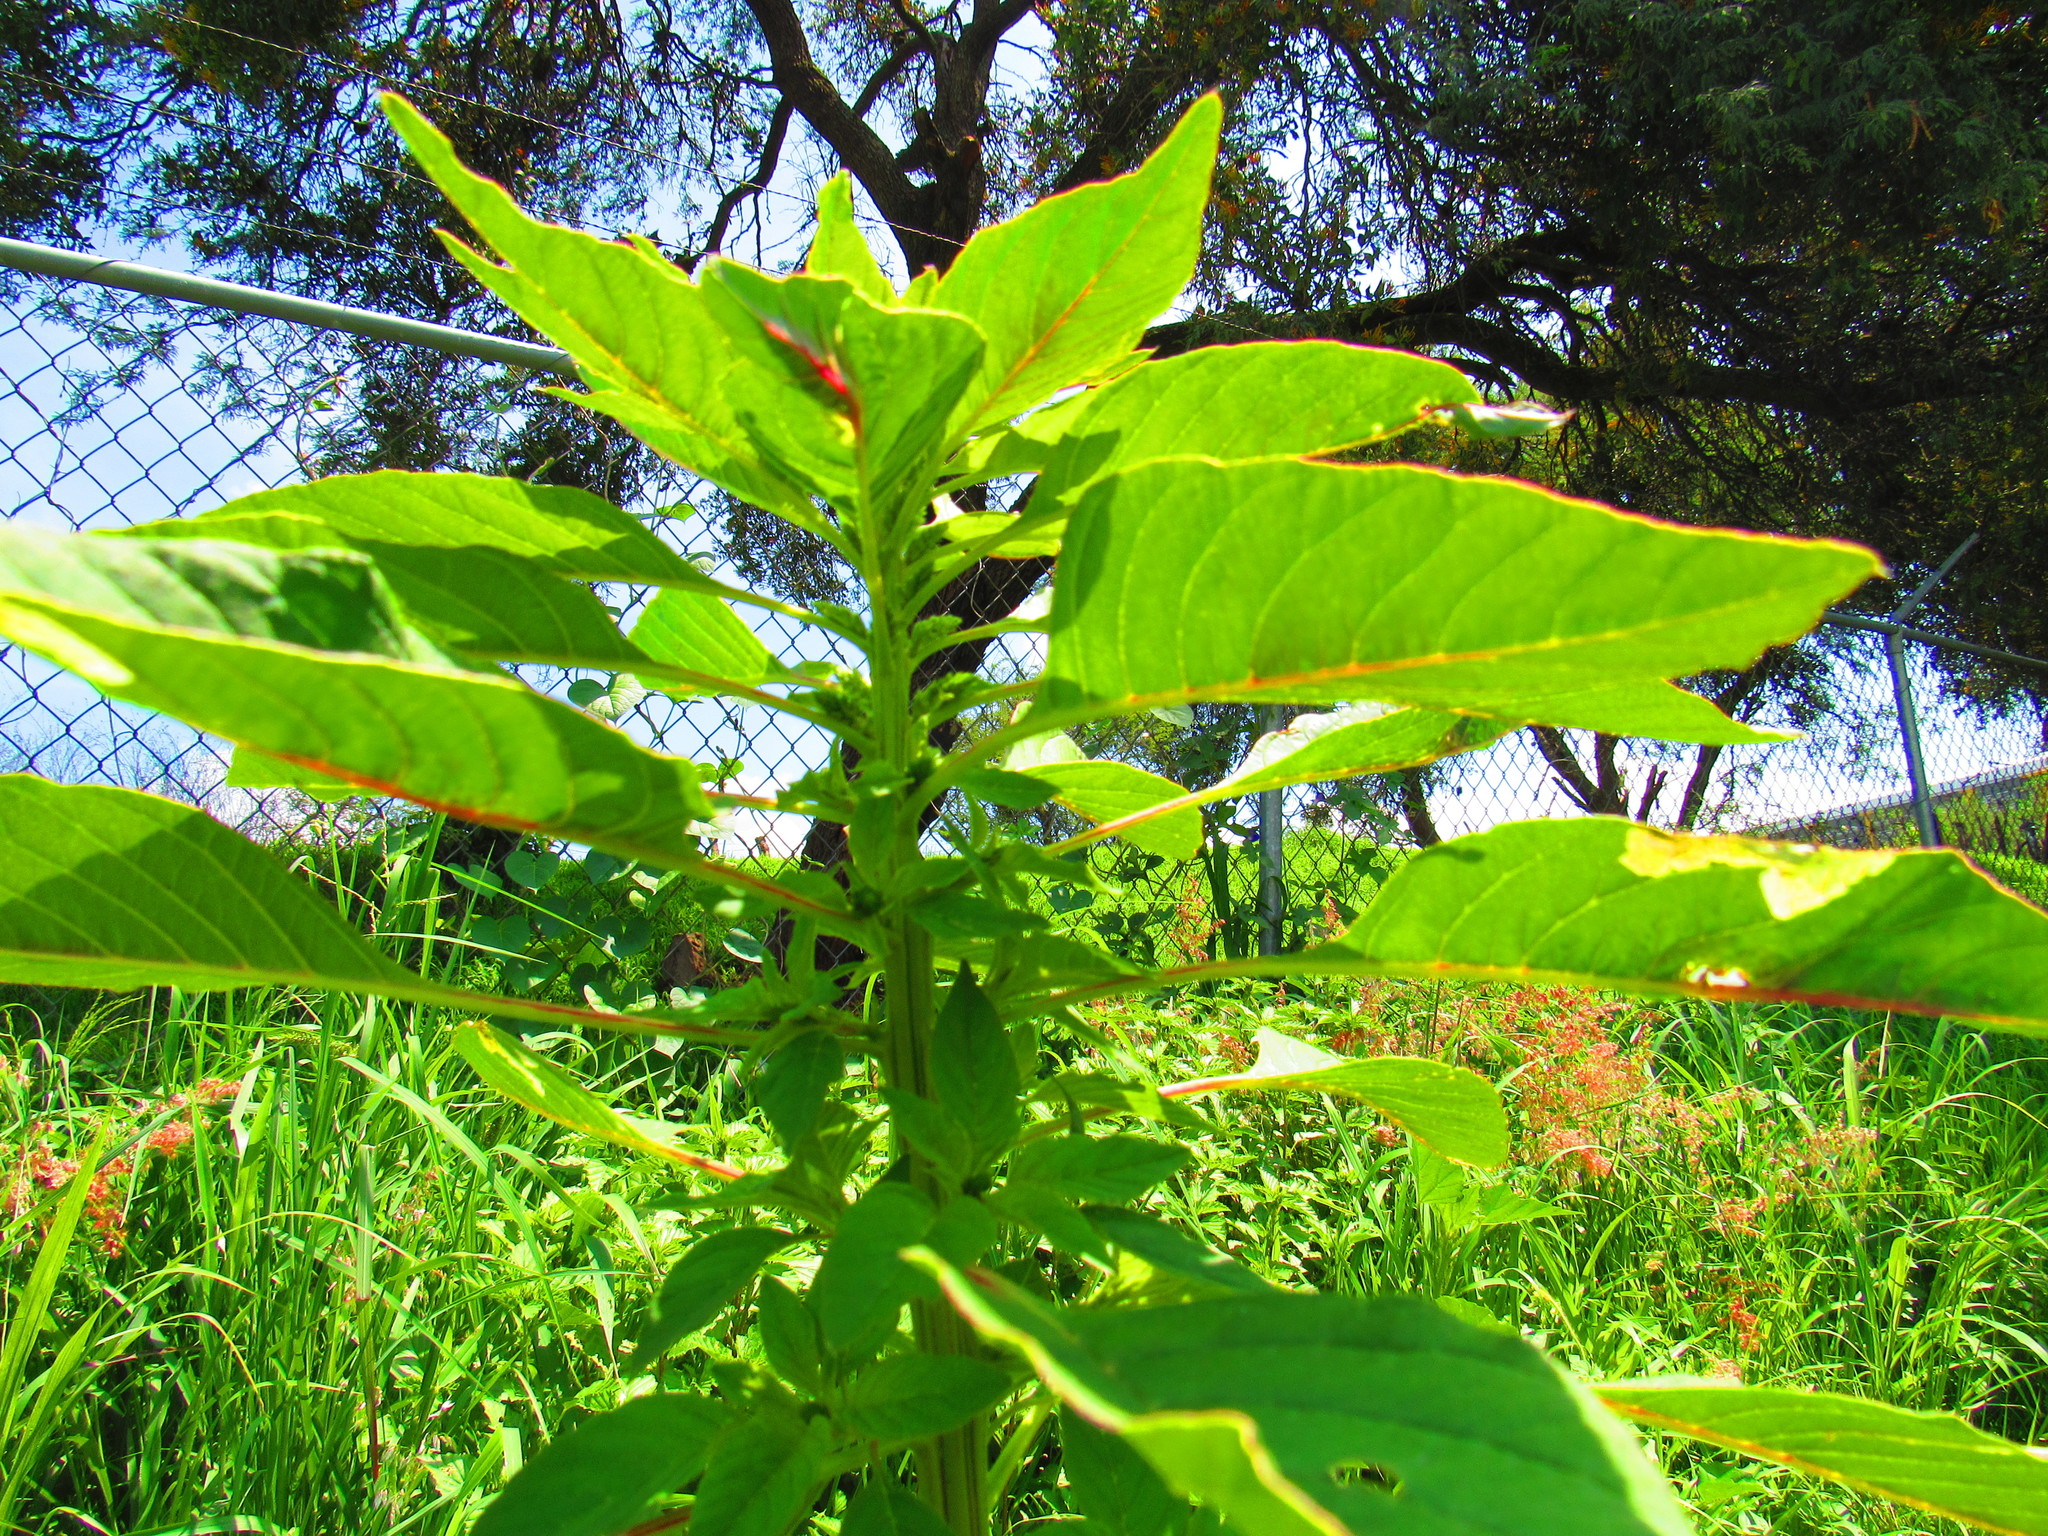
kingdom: Plantae
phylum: Tracheophyta
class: Magnoliopsida
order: Caryophyllales
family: Amaranthaceae
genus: Amaranthus
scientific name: Amaranthus cruentus
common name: Purple amaranth
